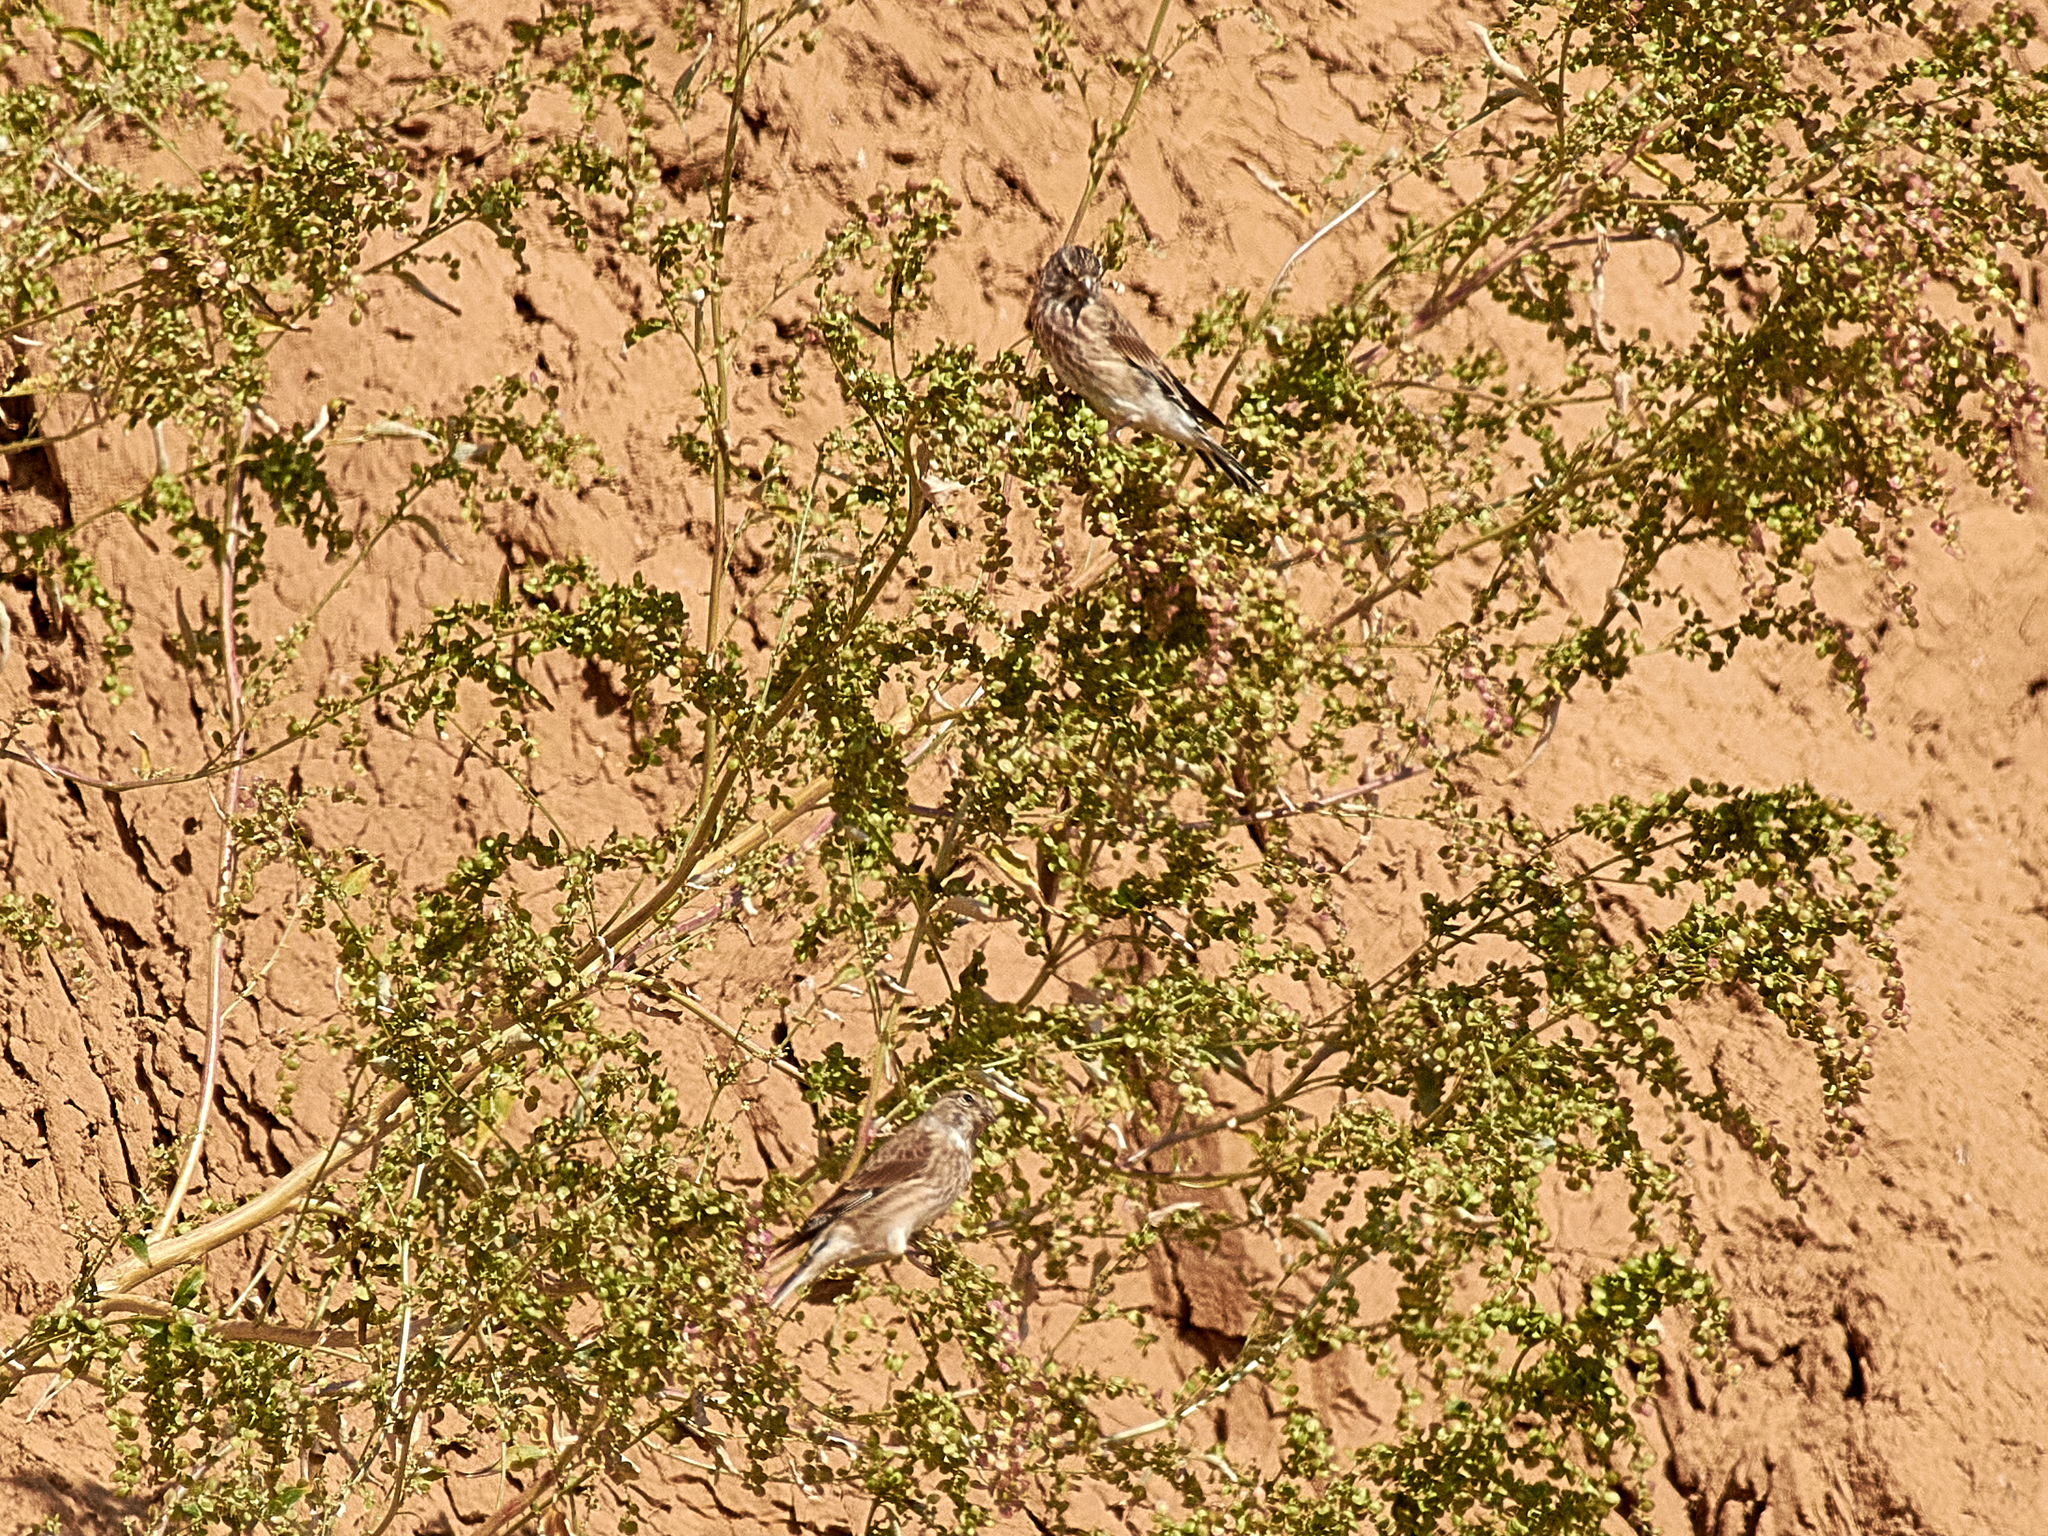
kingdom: Animalia
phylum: Chordata
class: Aves
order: Passeriformes
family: Fringillidae
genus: Linaria
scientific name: Linaria cannabina
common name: Common linnet
